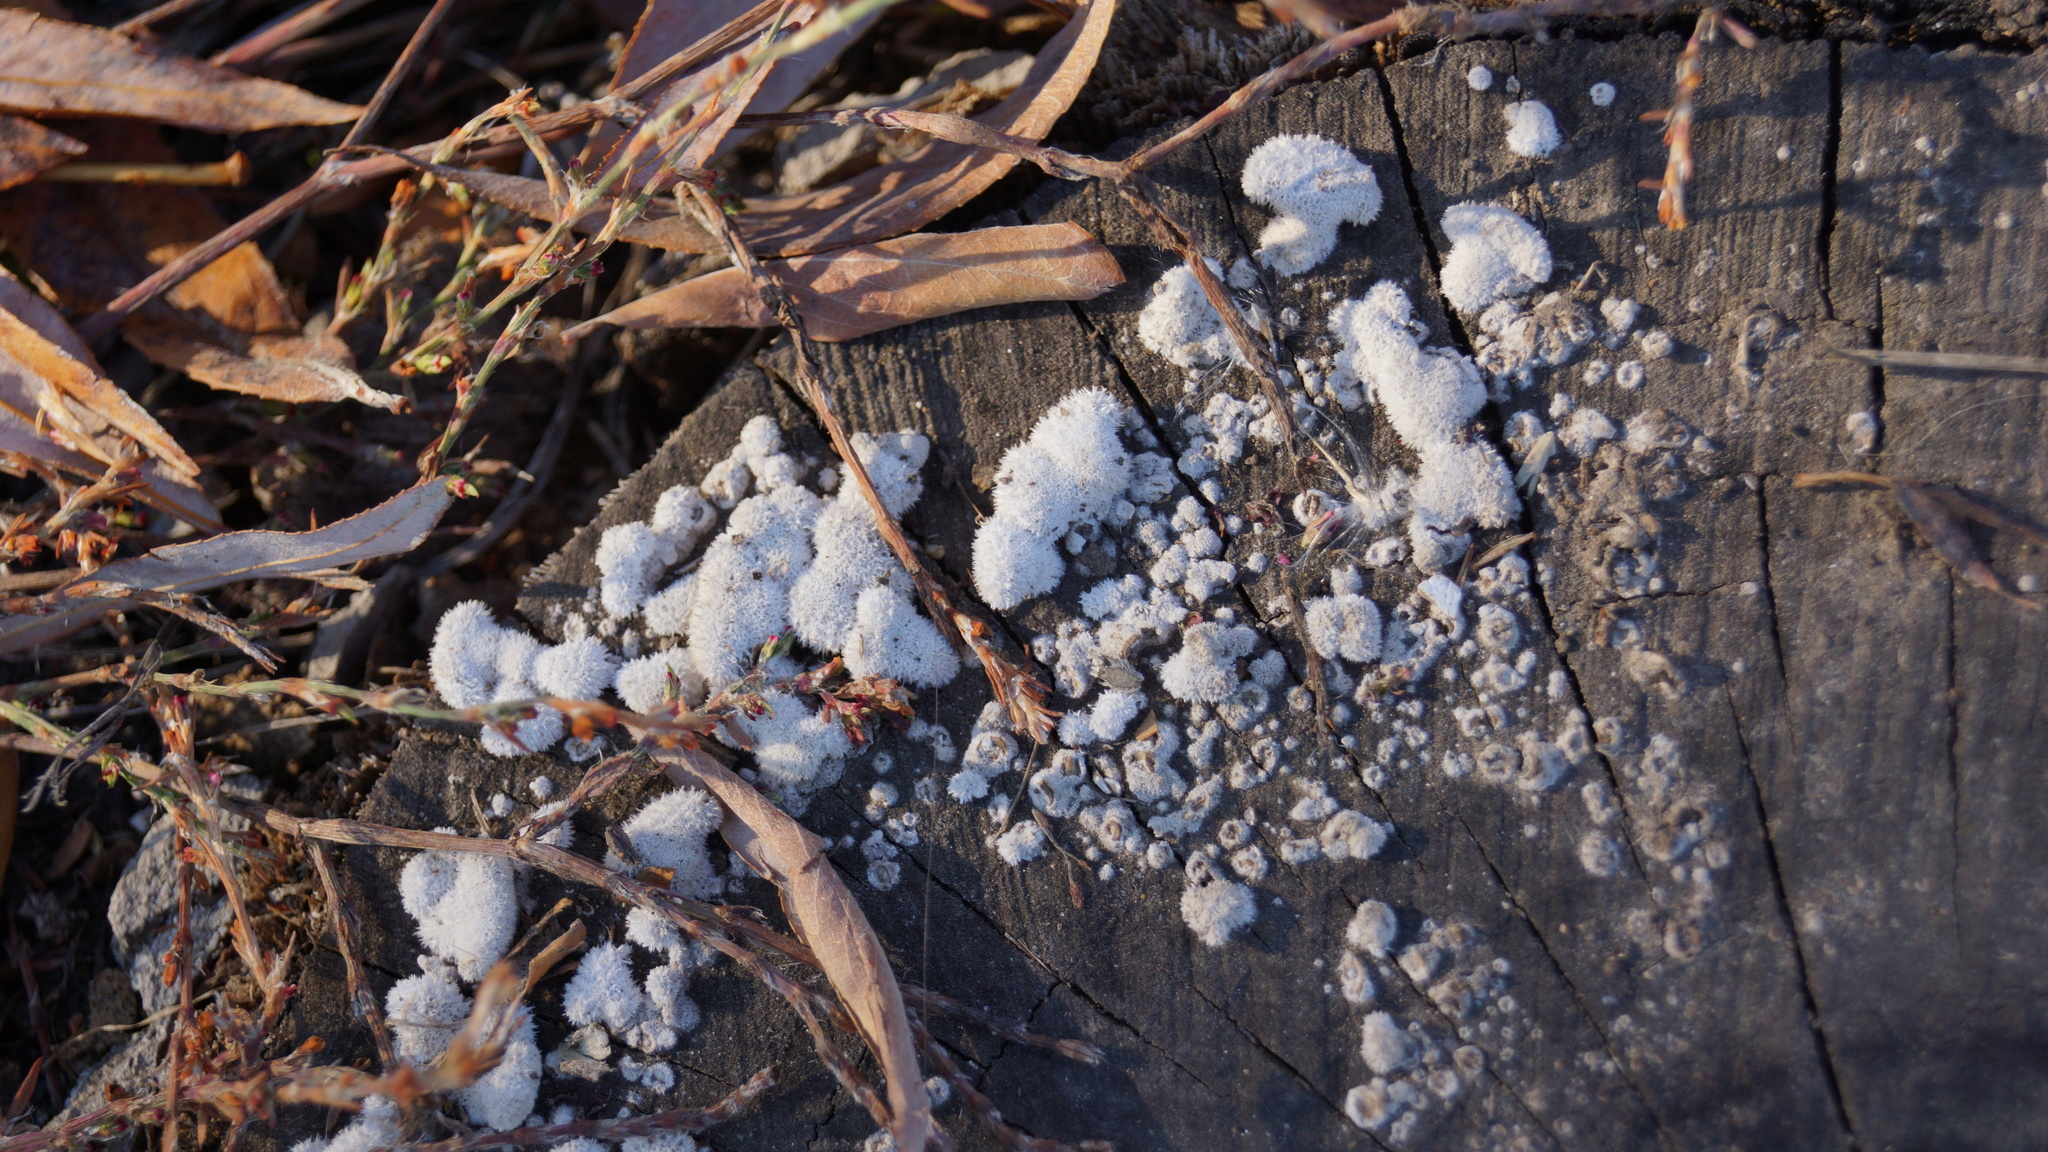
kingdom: Fungi
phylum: Basidiomycota
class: Agaricomycetes
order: Agaricales
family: Schizophyllaceae
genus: Schizophyllum
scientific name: Schizophyllum commune
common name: Common porecrust
